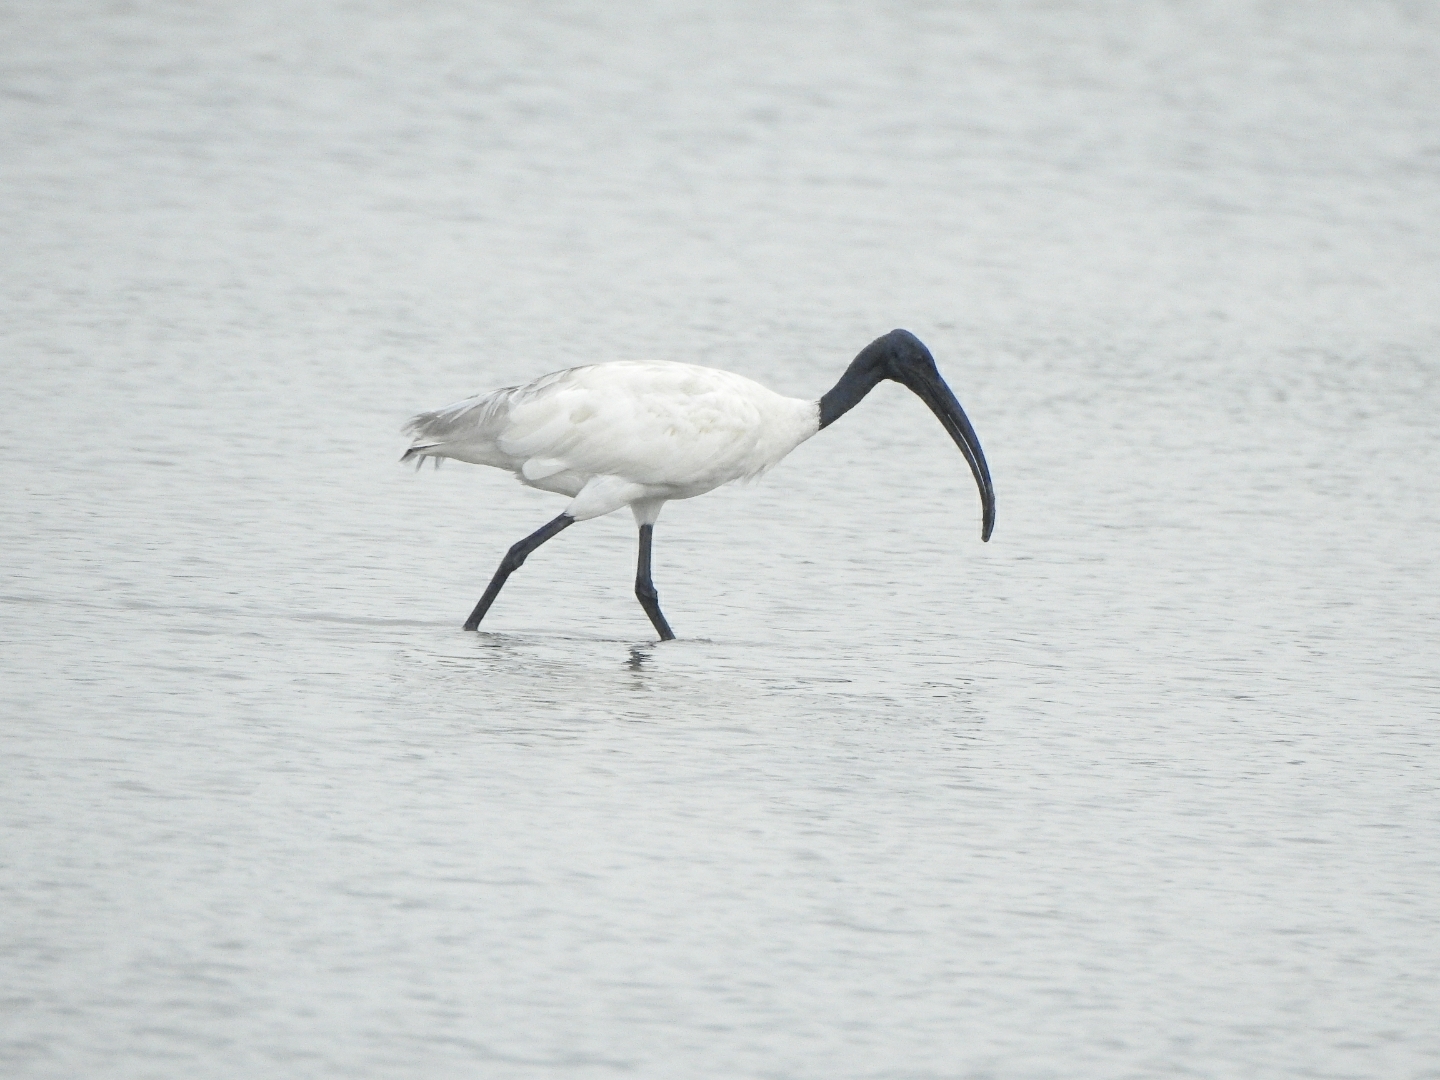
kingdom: Animalia
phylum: Chordata
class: Aves
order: Pelecaniformes
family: Threskiornithidae
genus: Threskiornis
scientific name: Threskiornis melanocephalus
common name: Black-headed ibis
